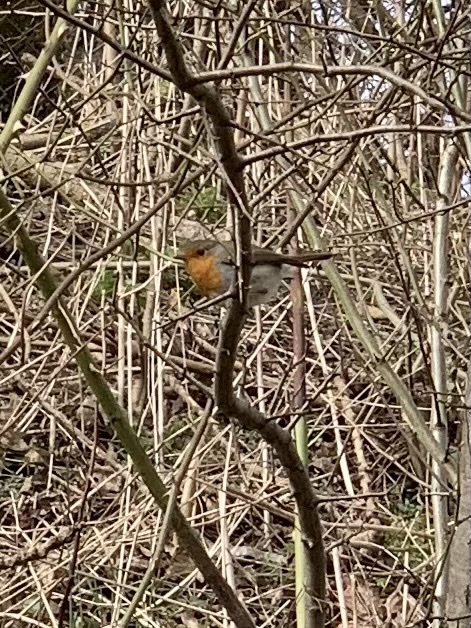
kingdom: Animalia
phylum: Chordata
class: Aves
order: Passeriformes
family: Muscicapidae
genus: Erithacus
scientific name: Erithacus rubecula
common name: European robin
